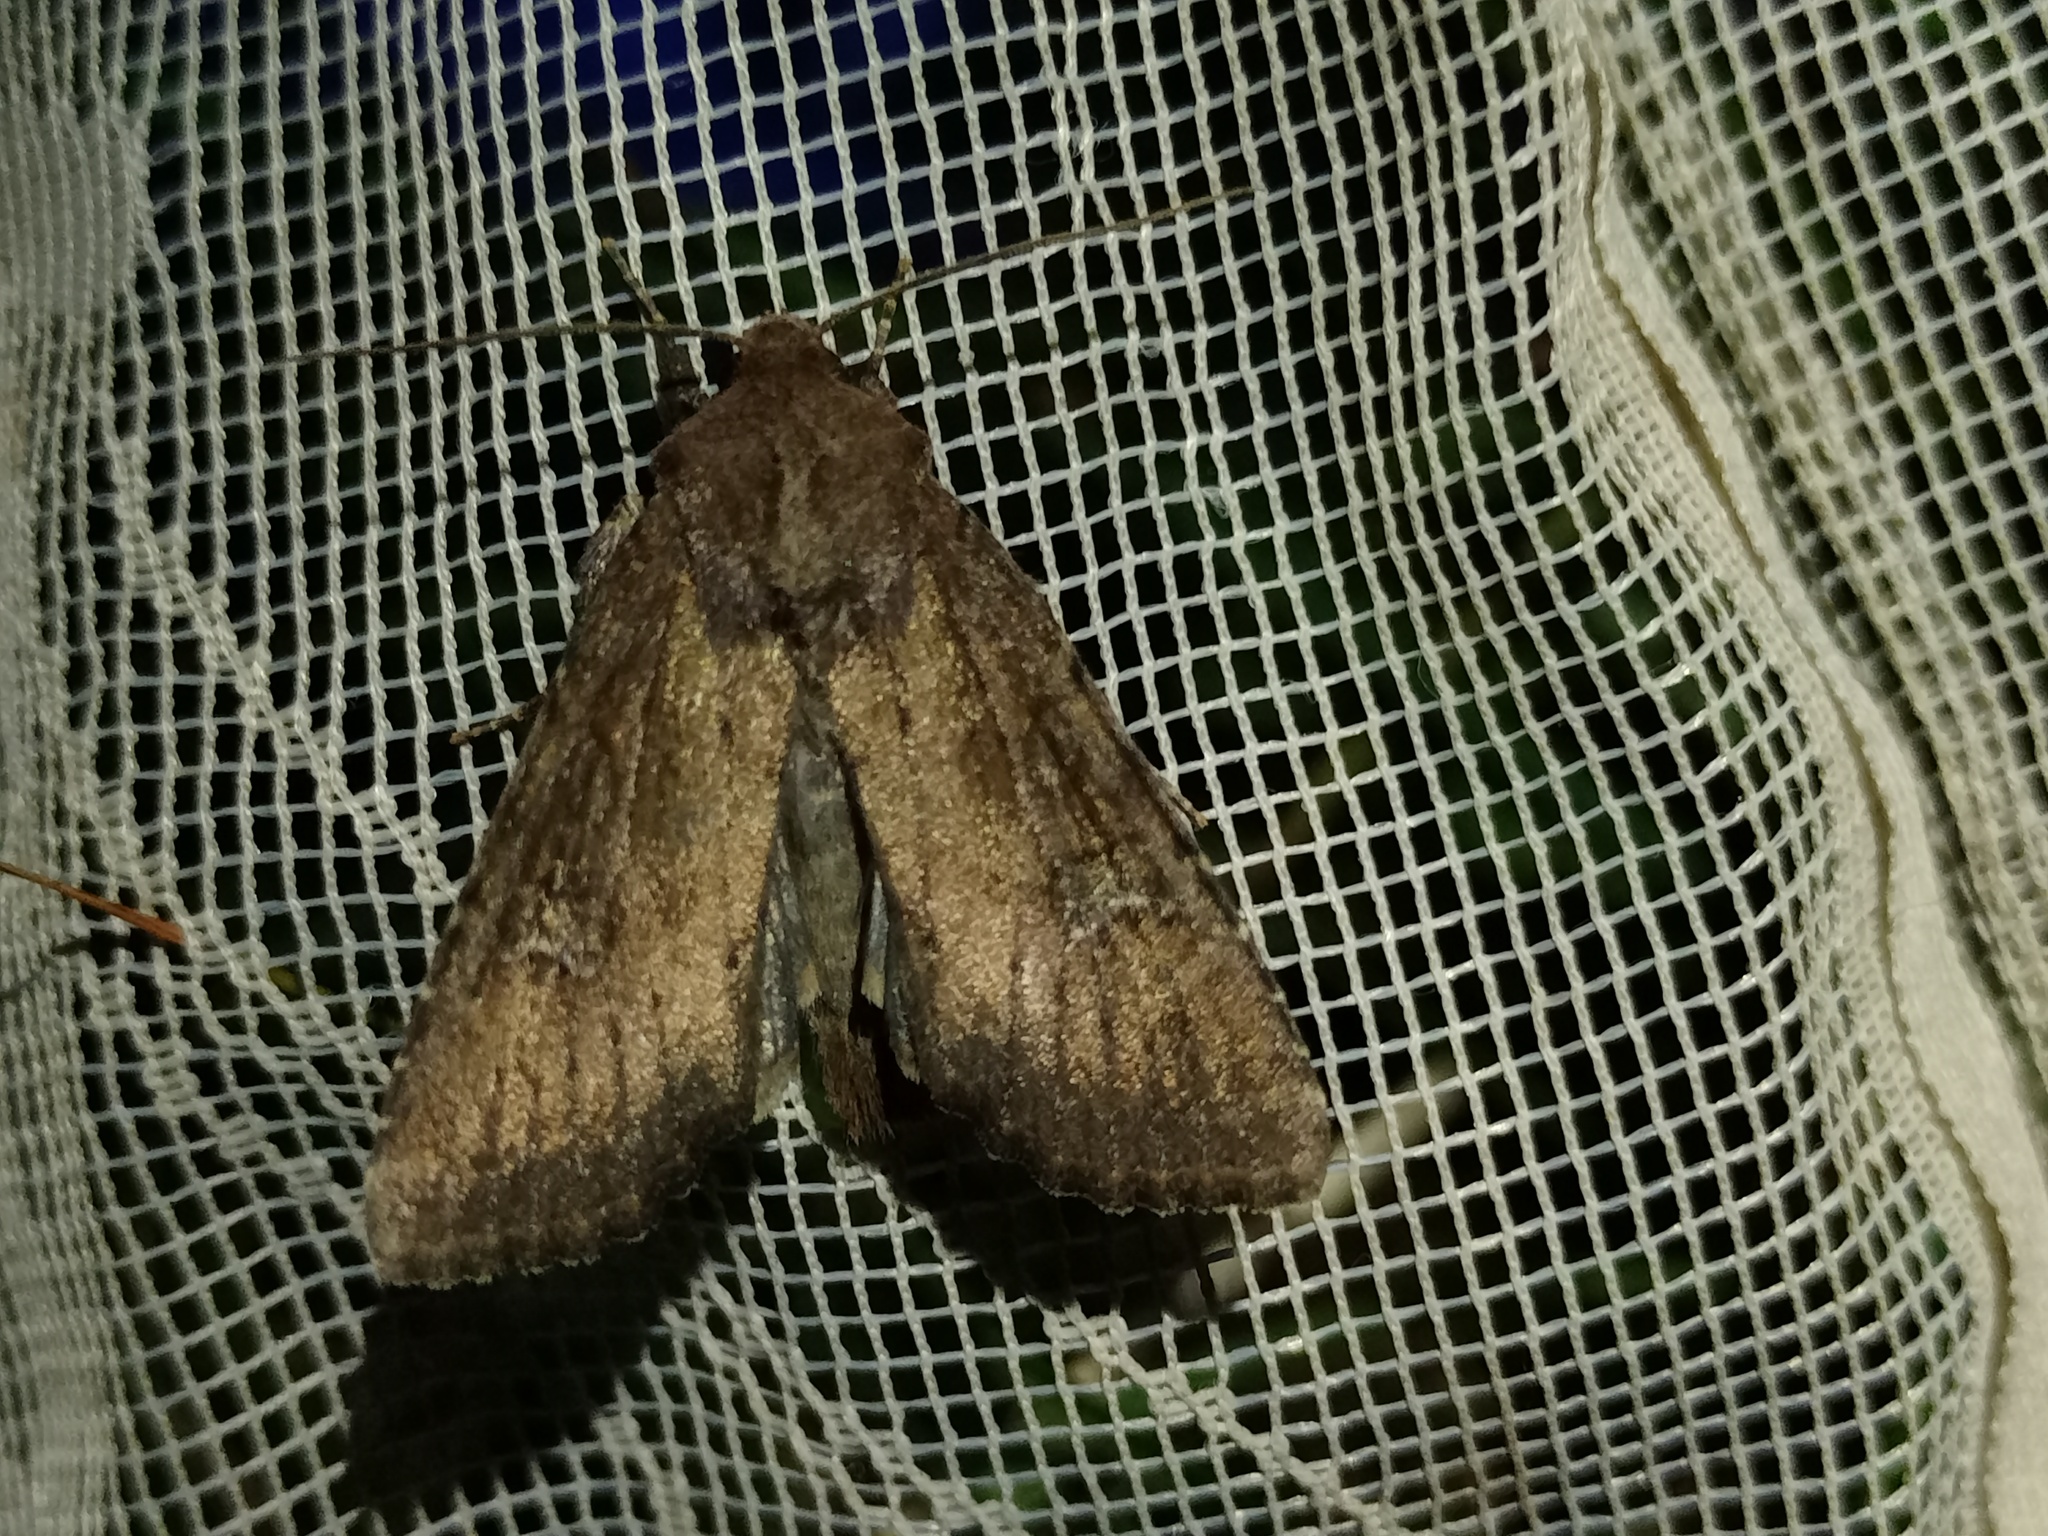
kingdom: Animalia
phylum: Arthropoda
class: Insecta
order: Lepidoptera
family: Noctuidae
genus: Apamea
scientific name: Apamea lateritia
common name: Scarce brindle
